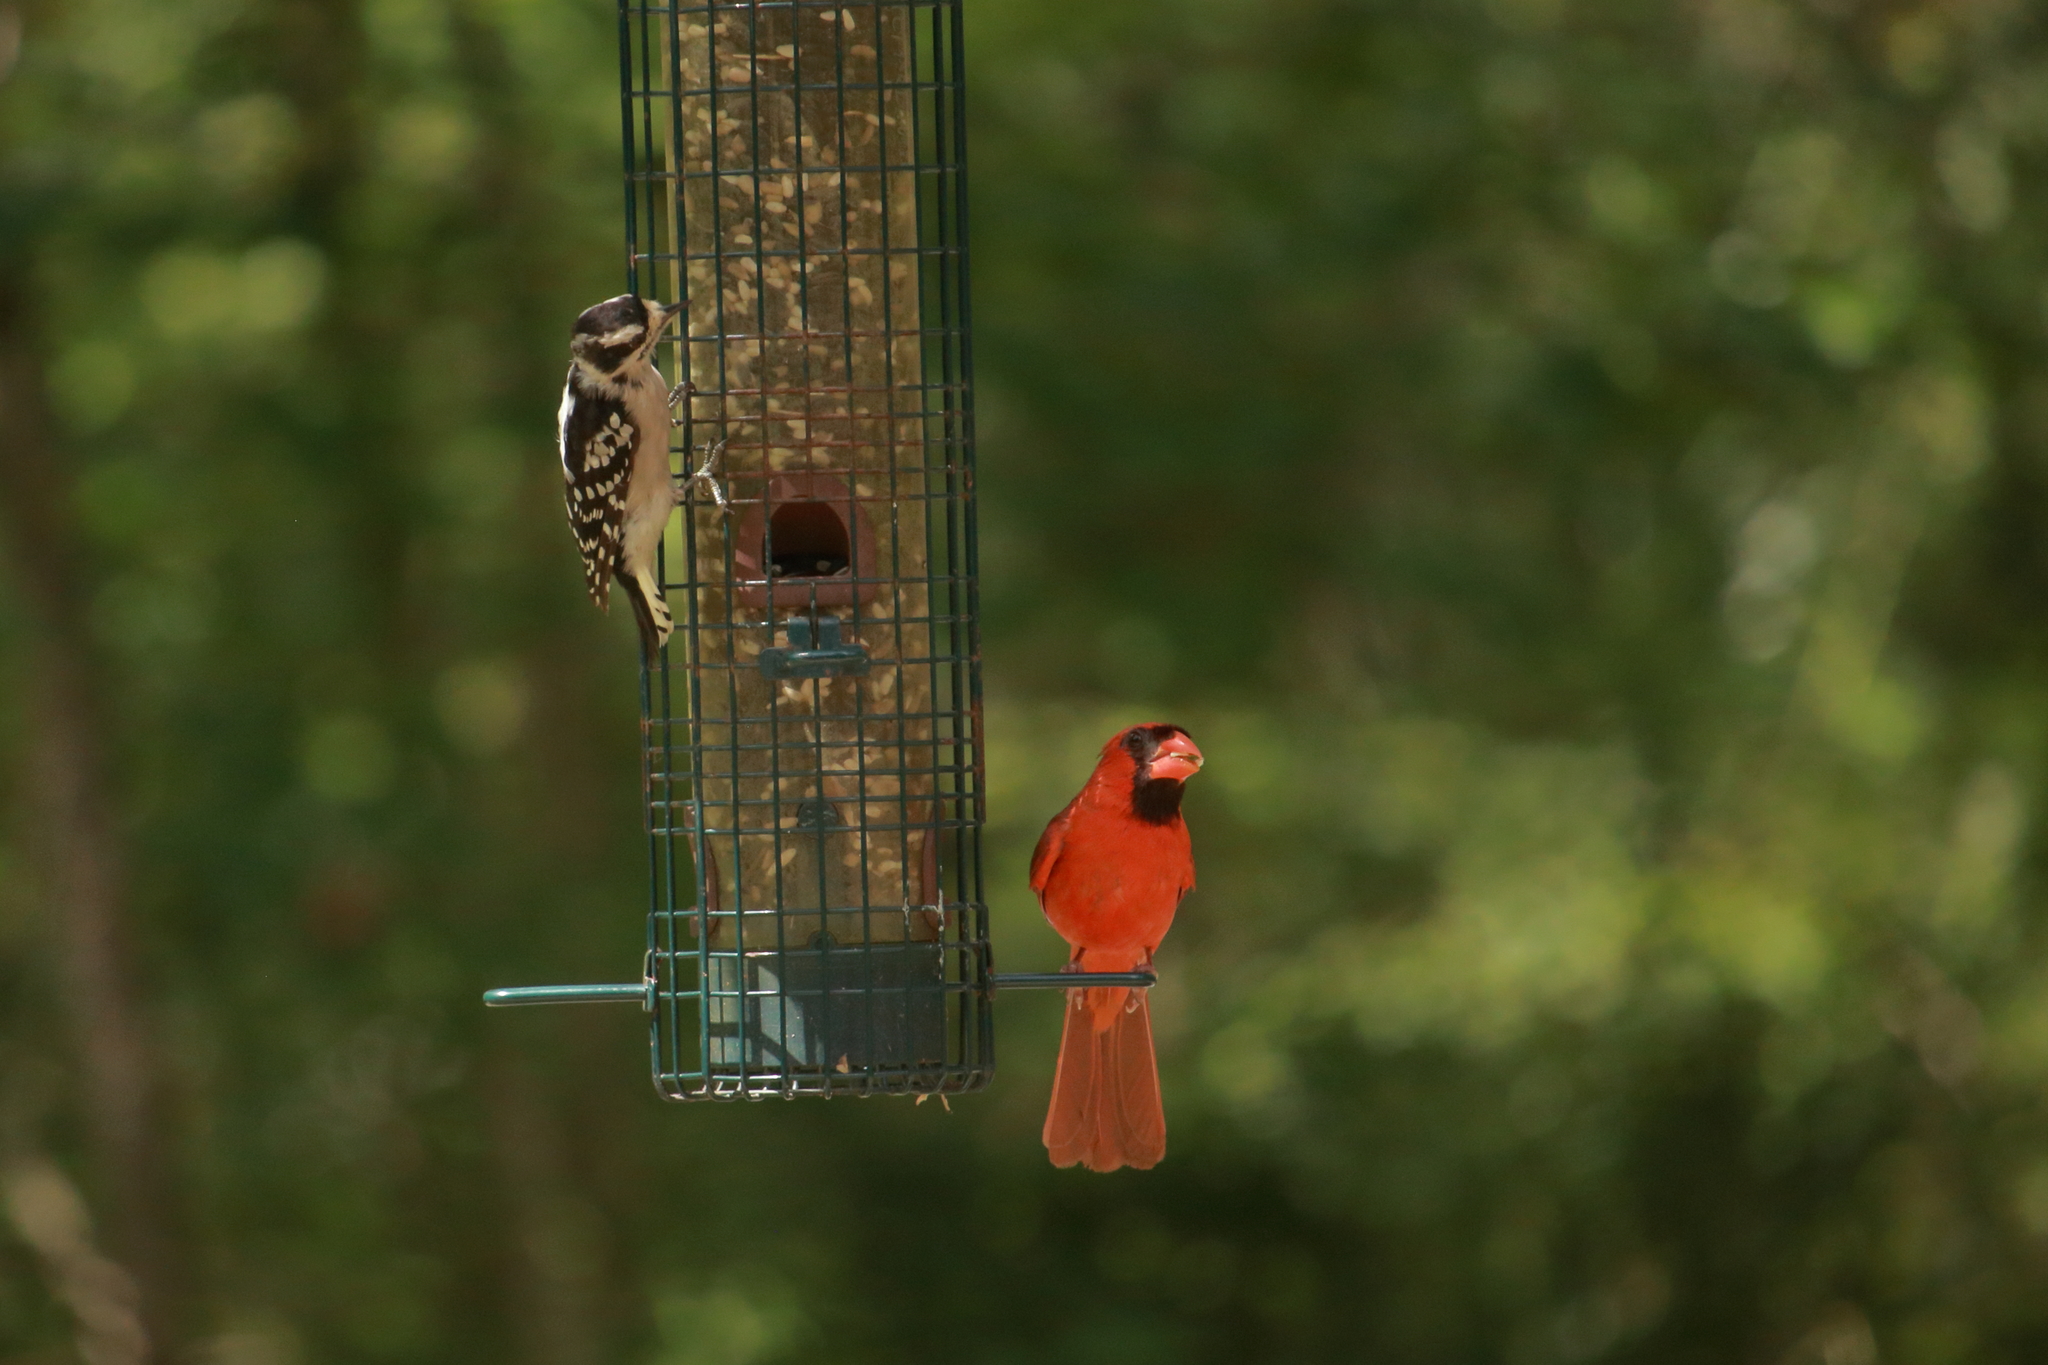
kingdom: Animalia
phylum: Chordata
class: Aves
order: Piciformes
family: Picidae
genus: Dryobates
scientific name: Dryobates pubescens
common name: Downy woodpecker
